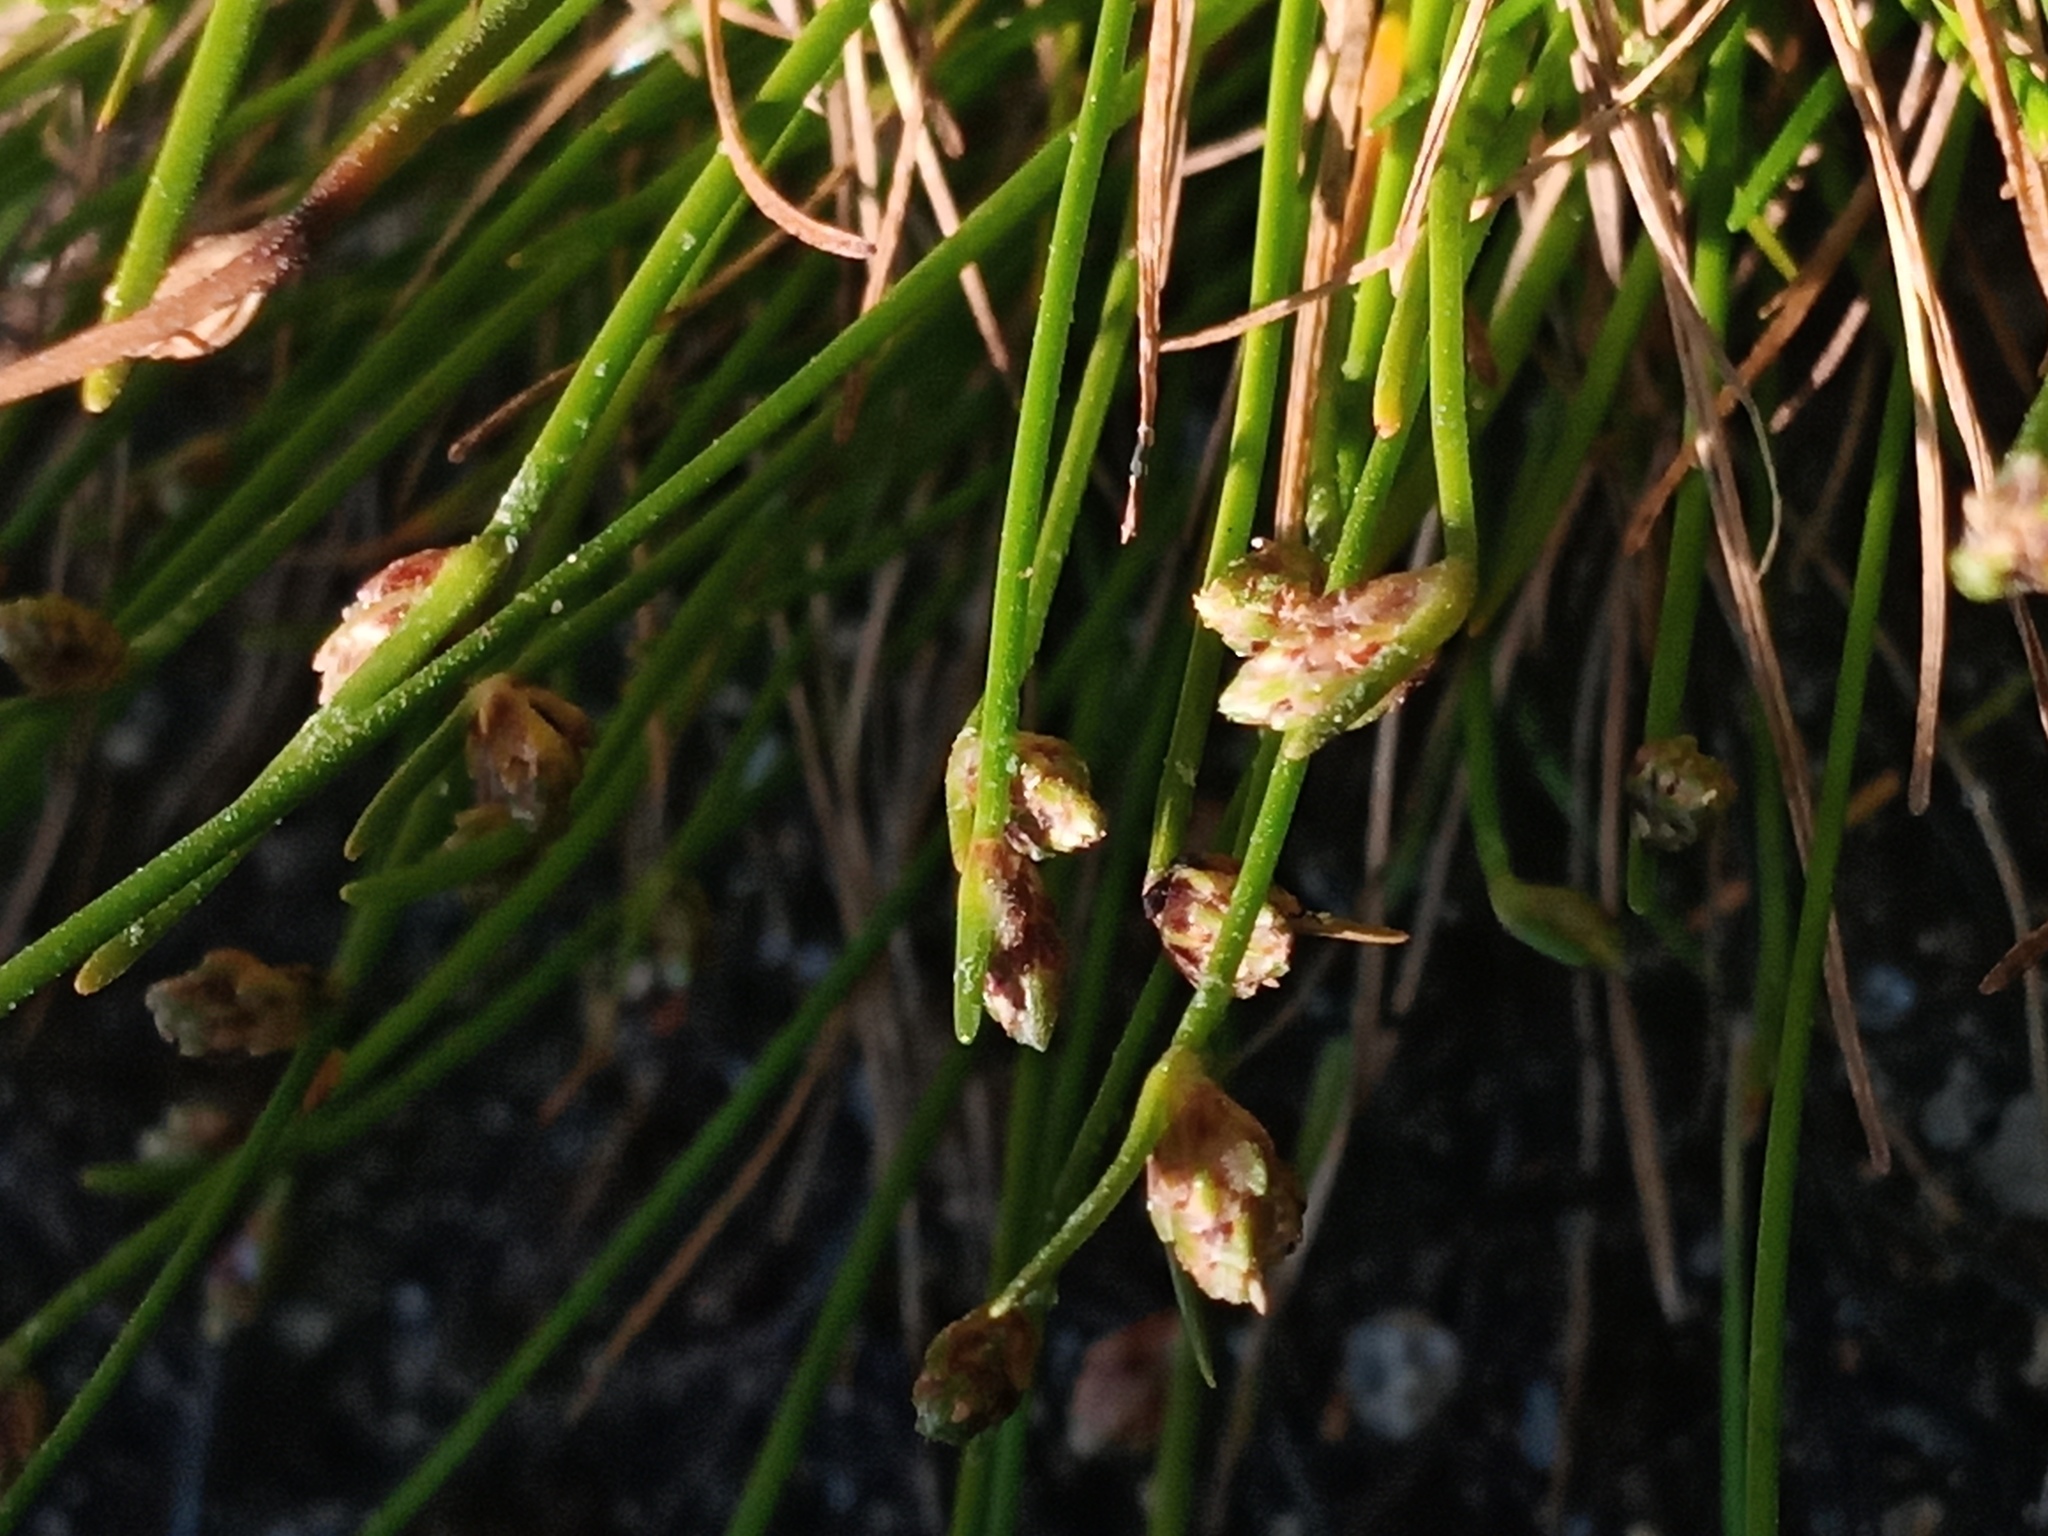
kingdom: Plantae
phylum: Tracheophyta
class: Liliopsida
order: Poales
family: Cyperaceae
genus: Isolepis
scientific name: Isolepis cernua
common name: Slender club-rush
